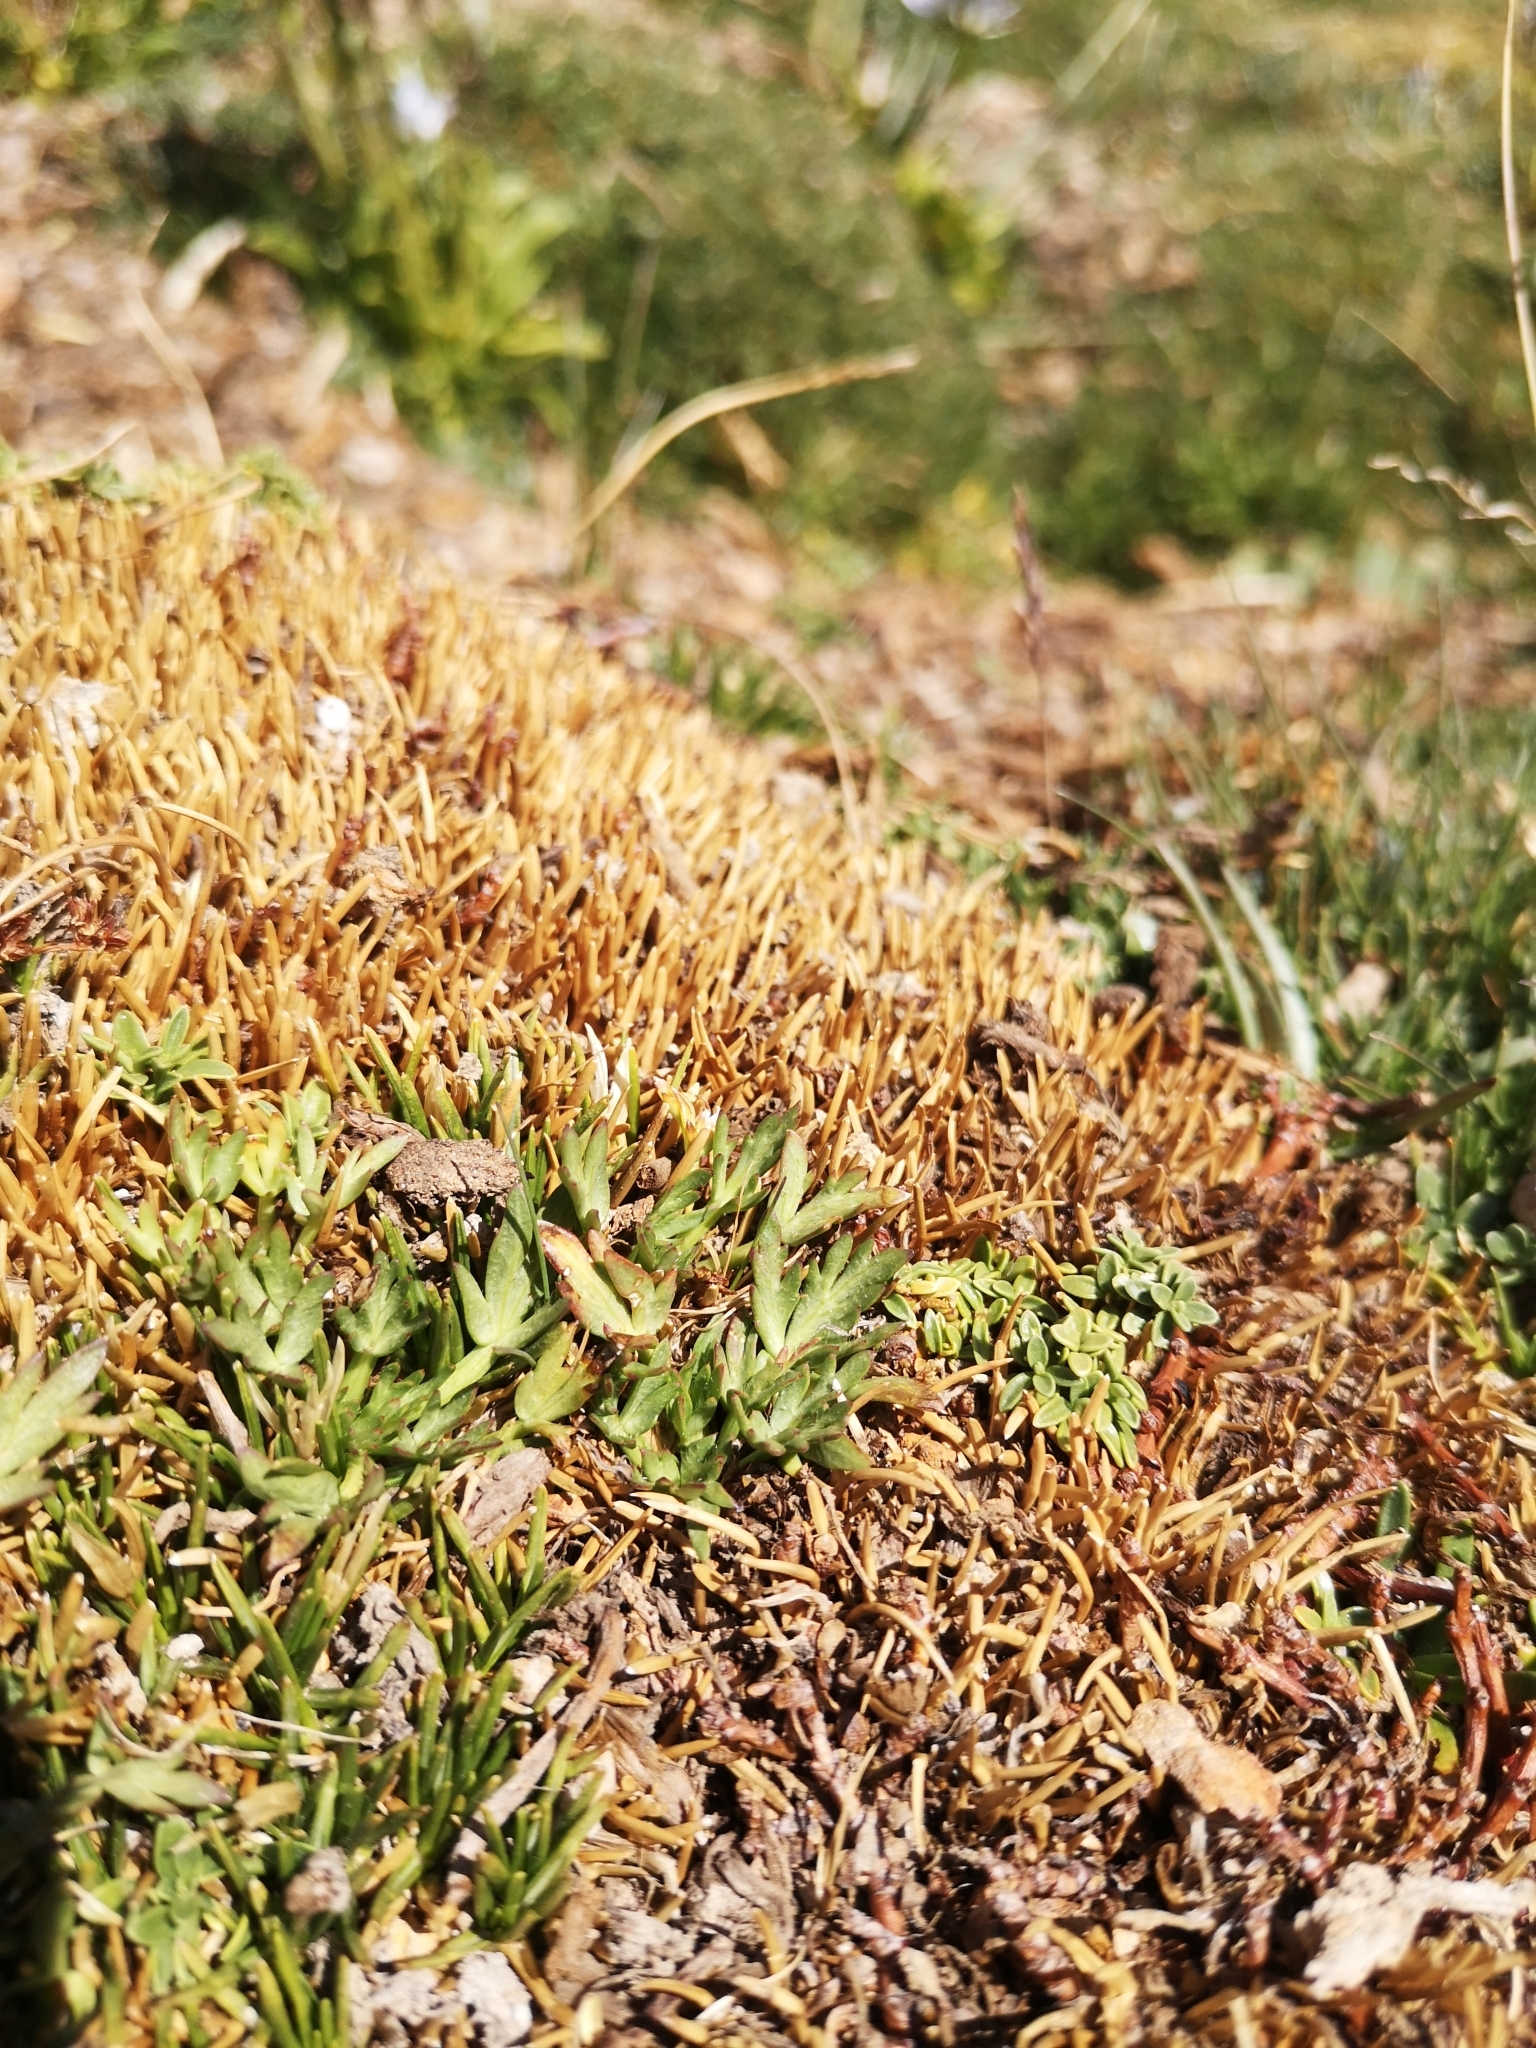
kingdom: Plantae
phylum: Tracheophyta
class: Magnoliopsida
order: Apiales
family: Apiaceae
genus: Azorella
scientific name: Azorella trifoliolata
